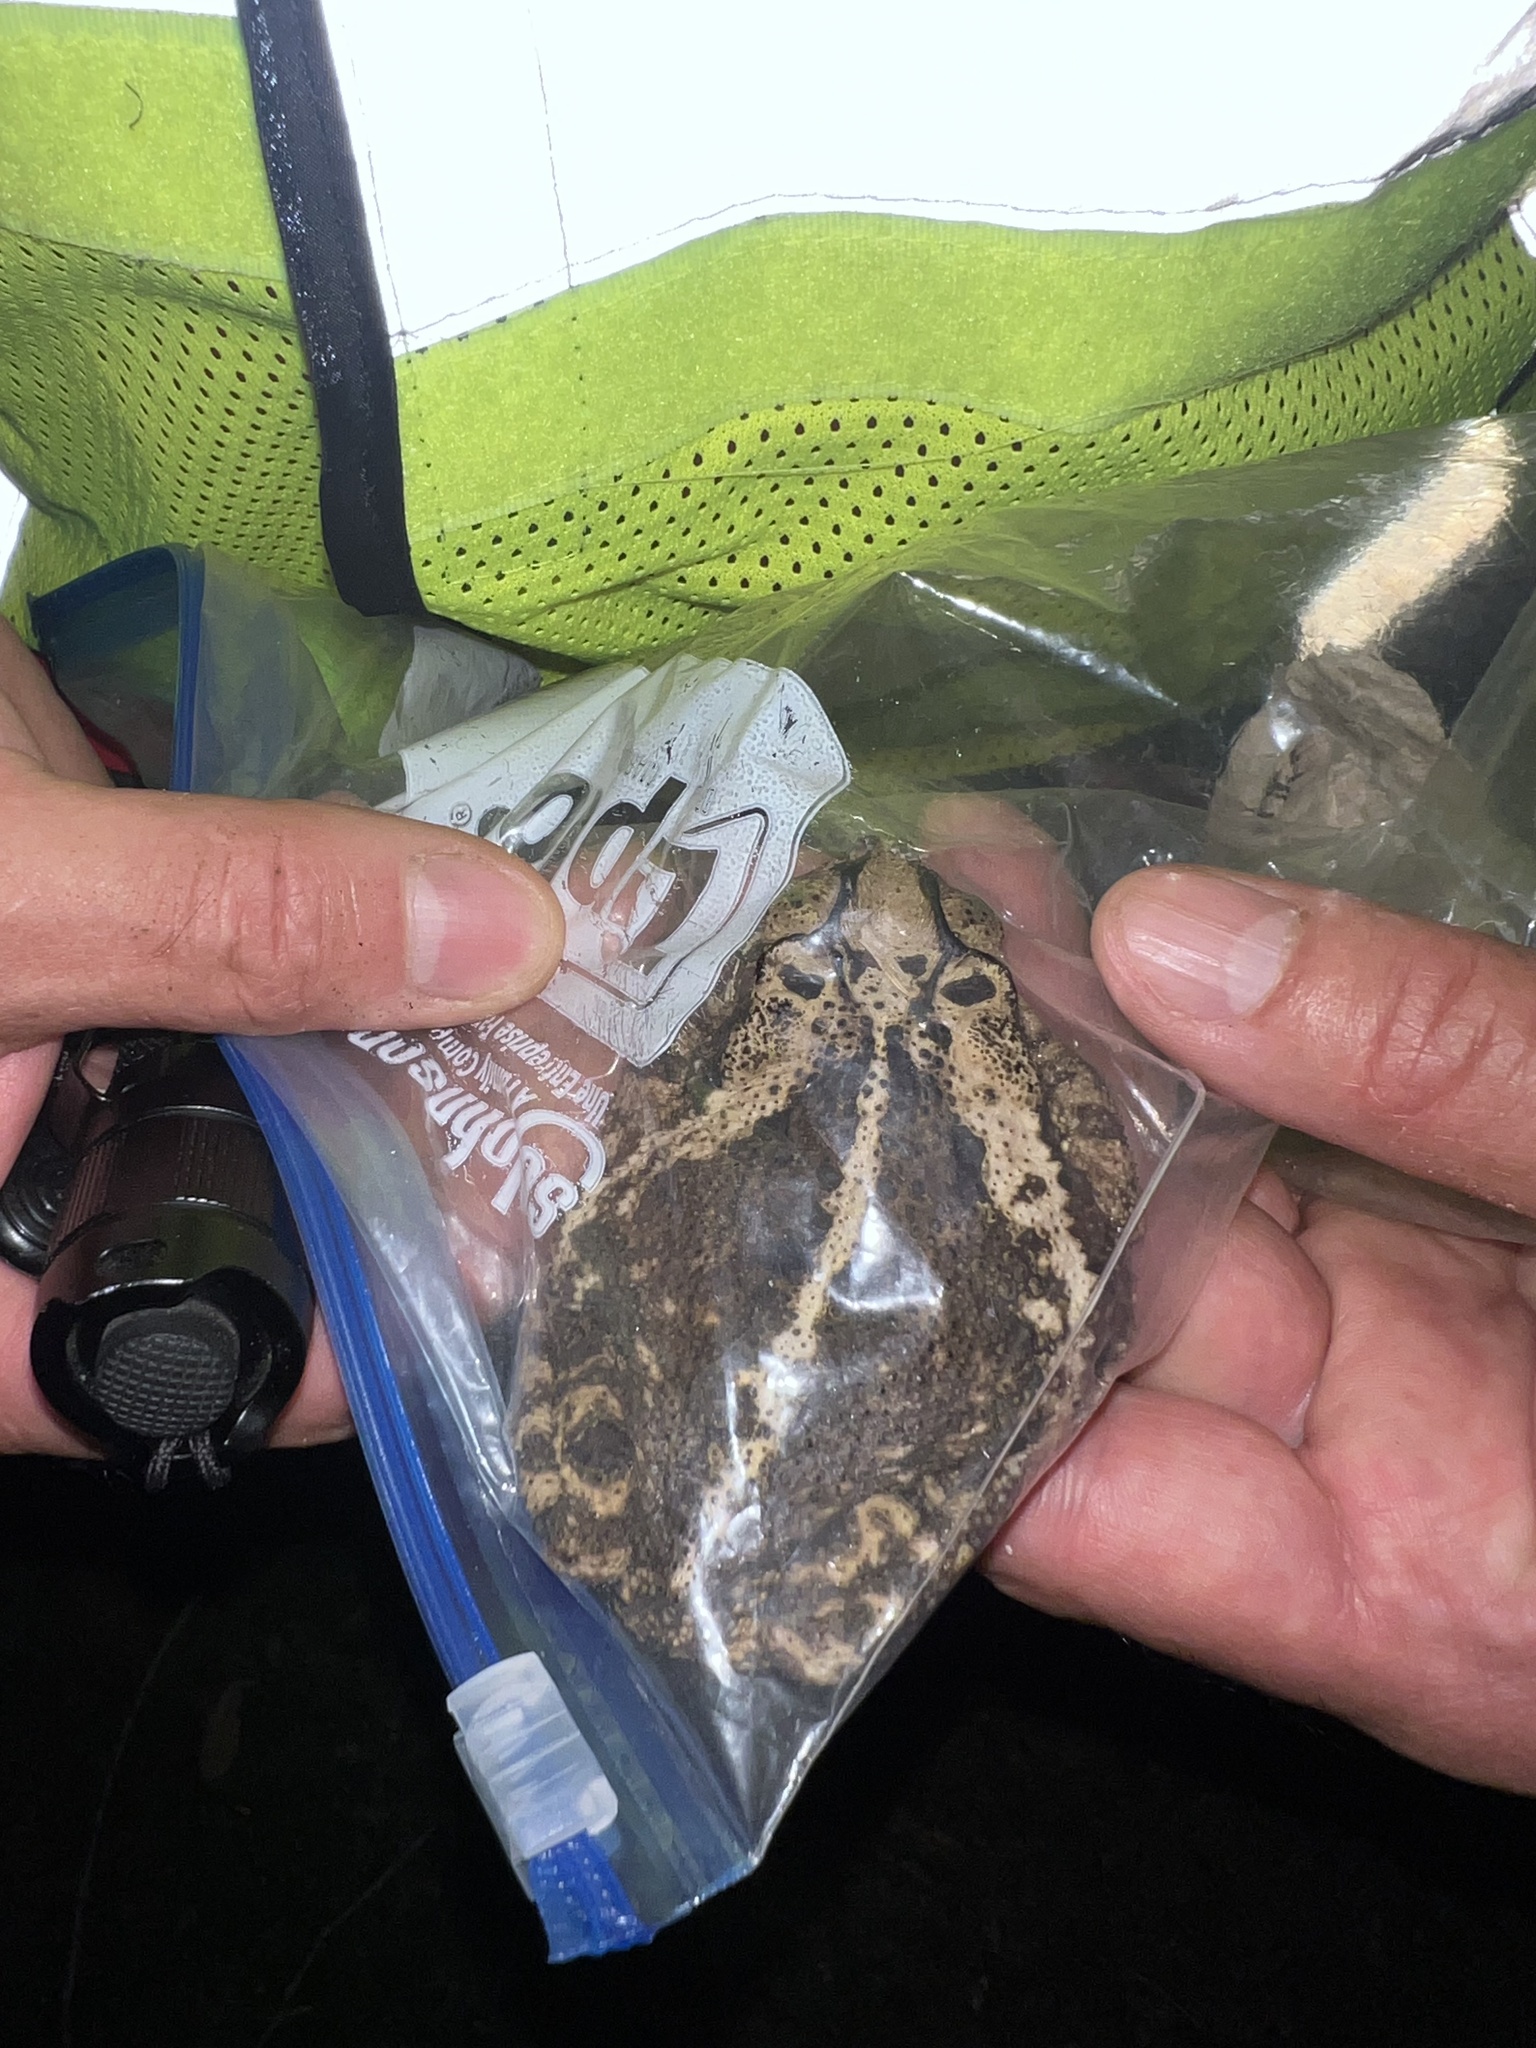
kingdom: Animalia
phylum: Chordata
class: Amphibia
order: Anura
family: Bufonidae
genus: Incilius
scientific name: Incilius nebulifer
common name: Gulf coast toad
